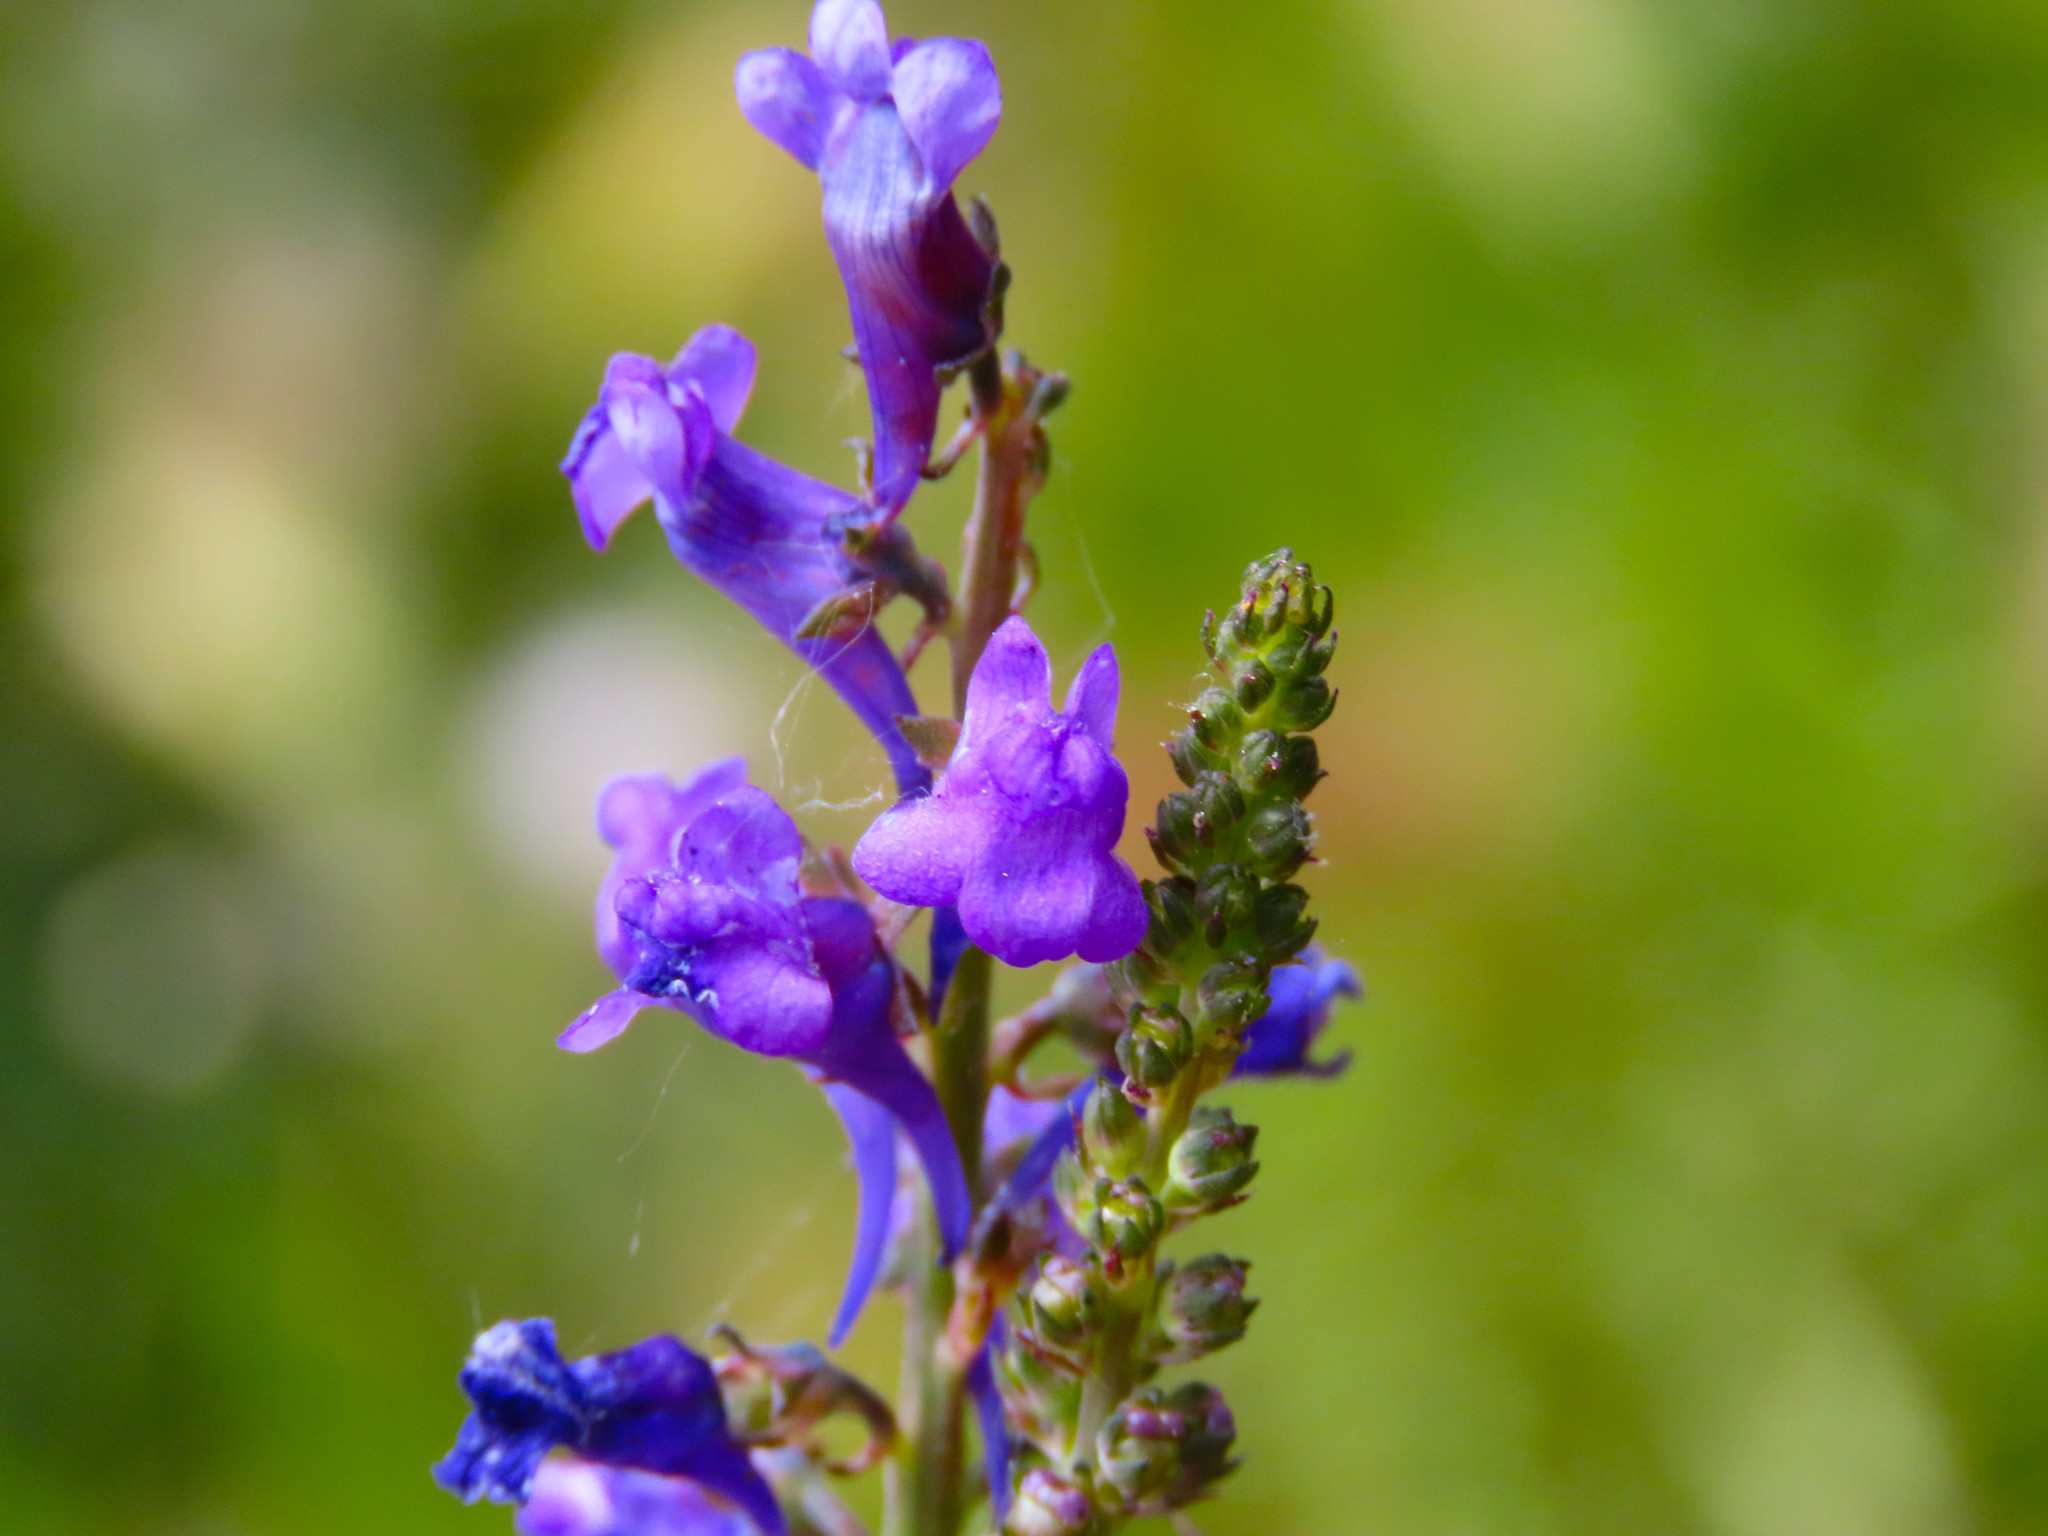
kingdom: Plantae
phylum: Tracheophyta
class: Magnoliopsida
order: Lamiales
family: Plantaginaceae
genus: Linaria
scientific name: Linaria purpurea
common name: Purple toadflax
